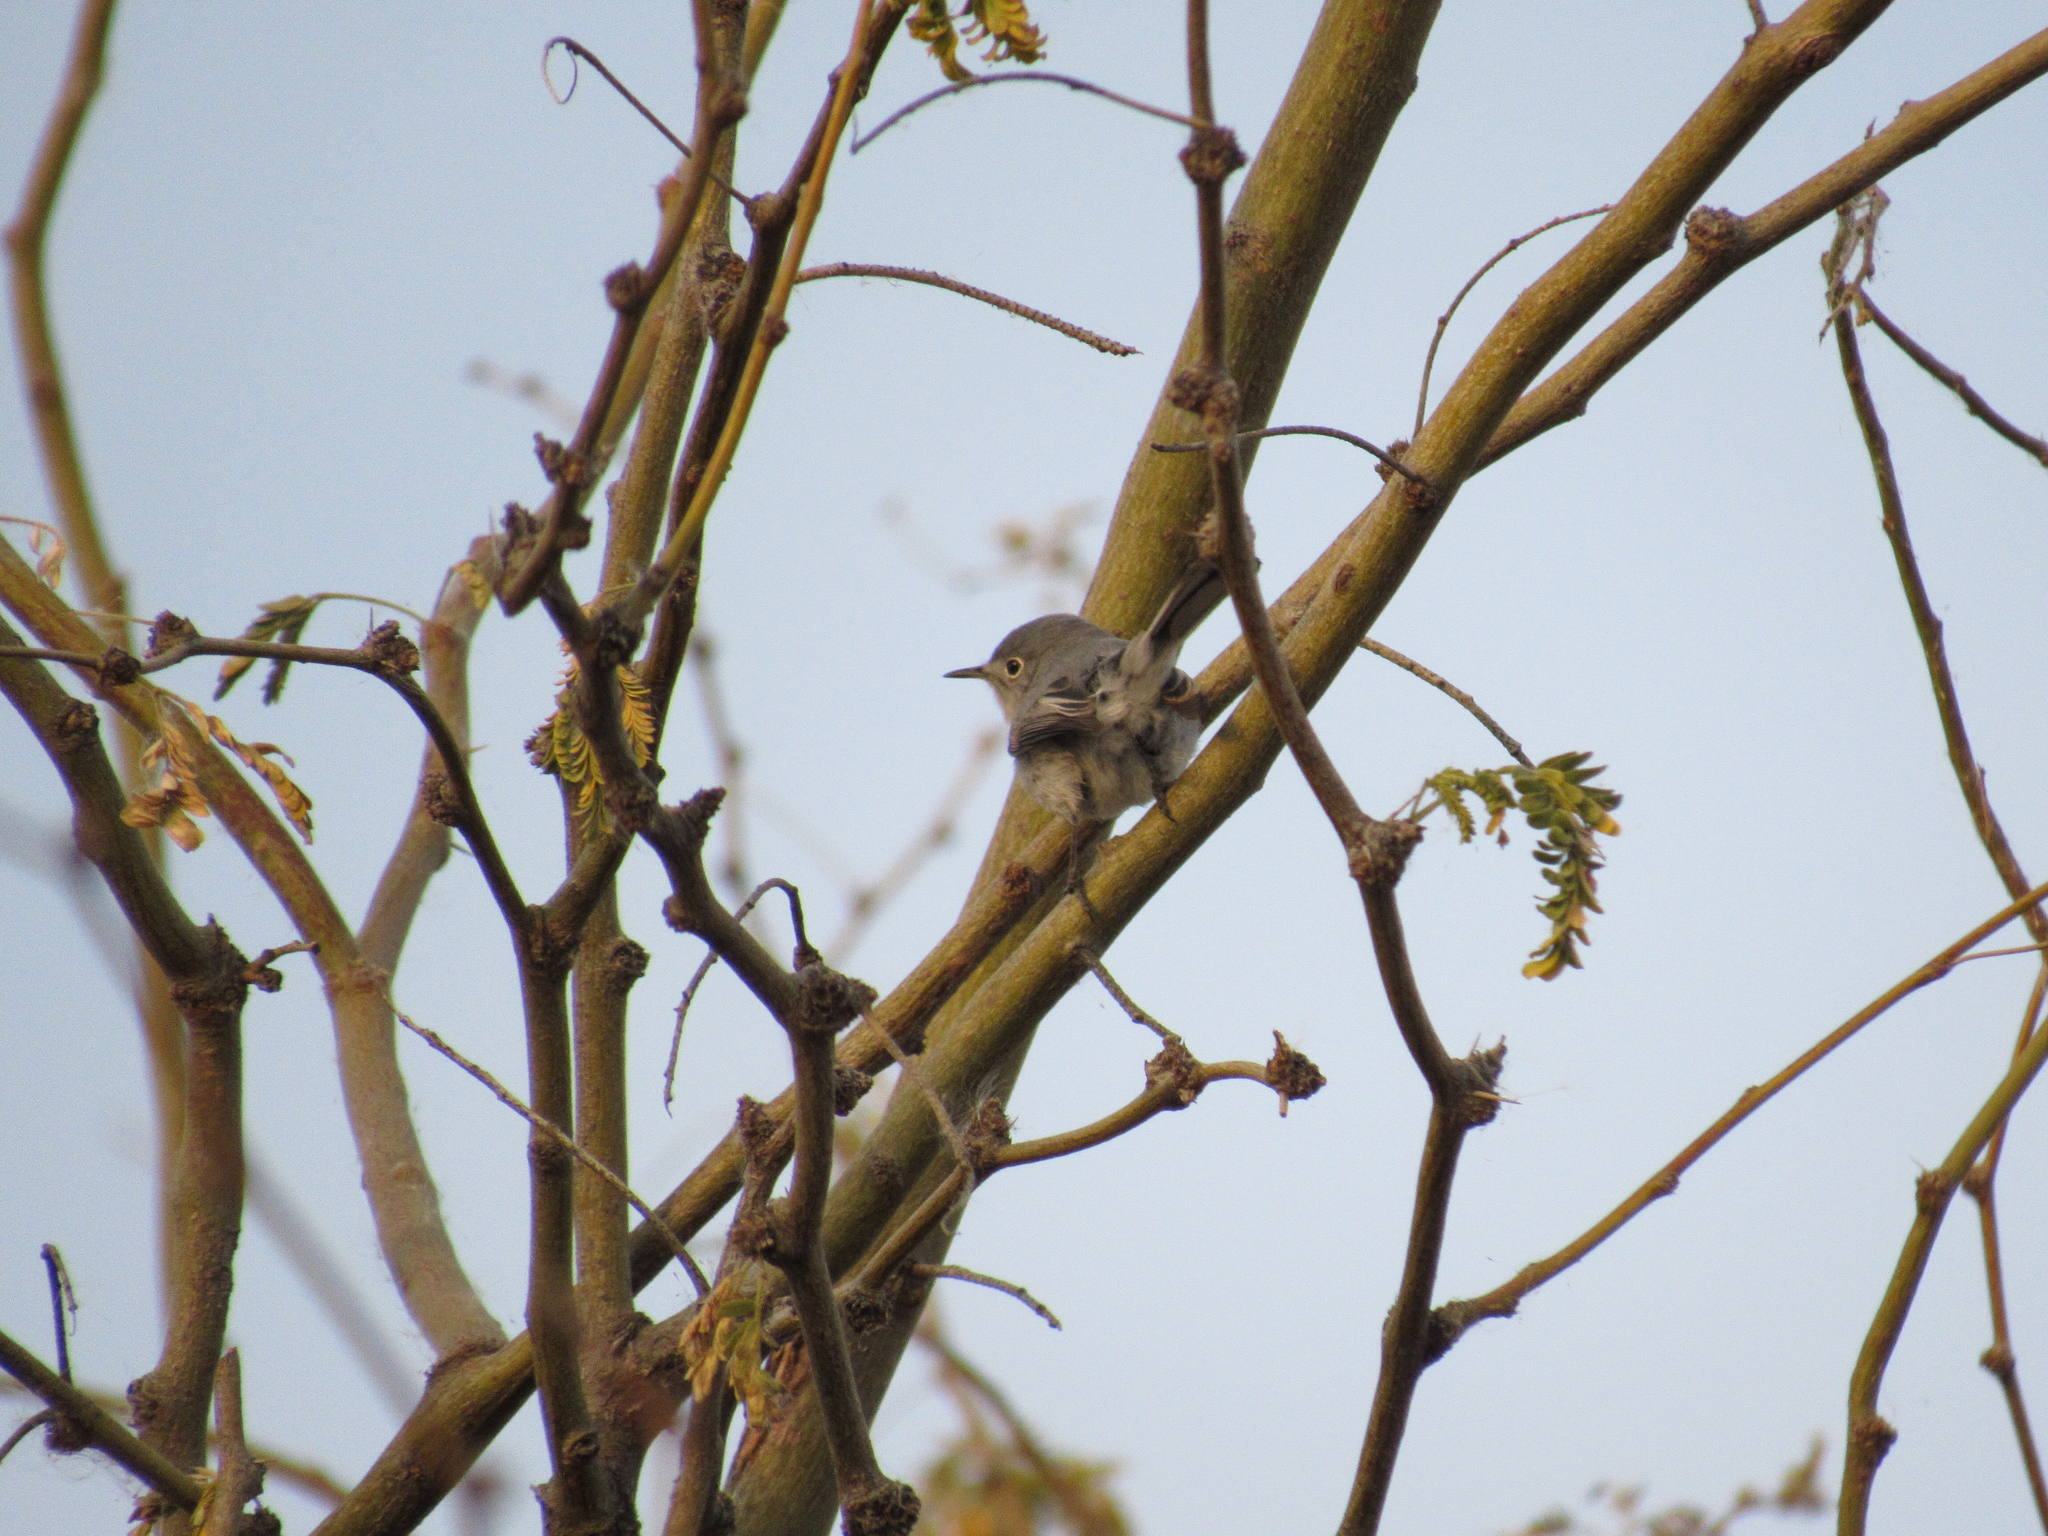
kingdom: Animalia
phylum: Chordata
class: Aves
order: Passeriformes
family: Polioptilidae
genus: Polioptila
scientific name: Polioptila caerulea
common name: Blue-gray gnatcatcher
